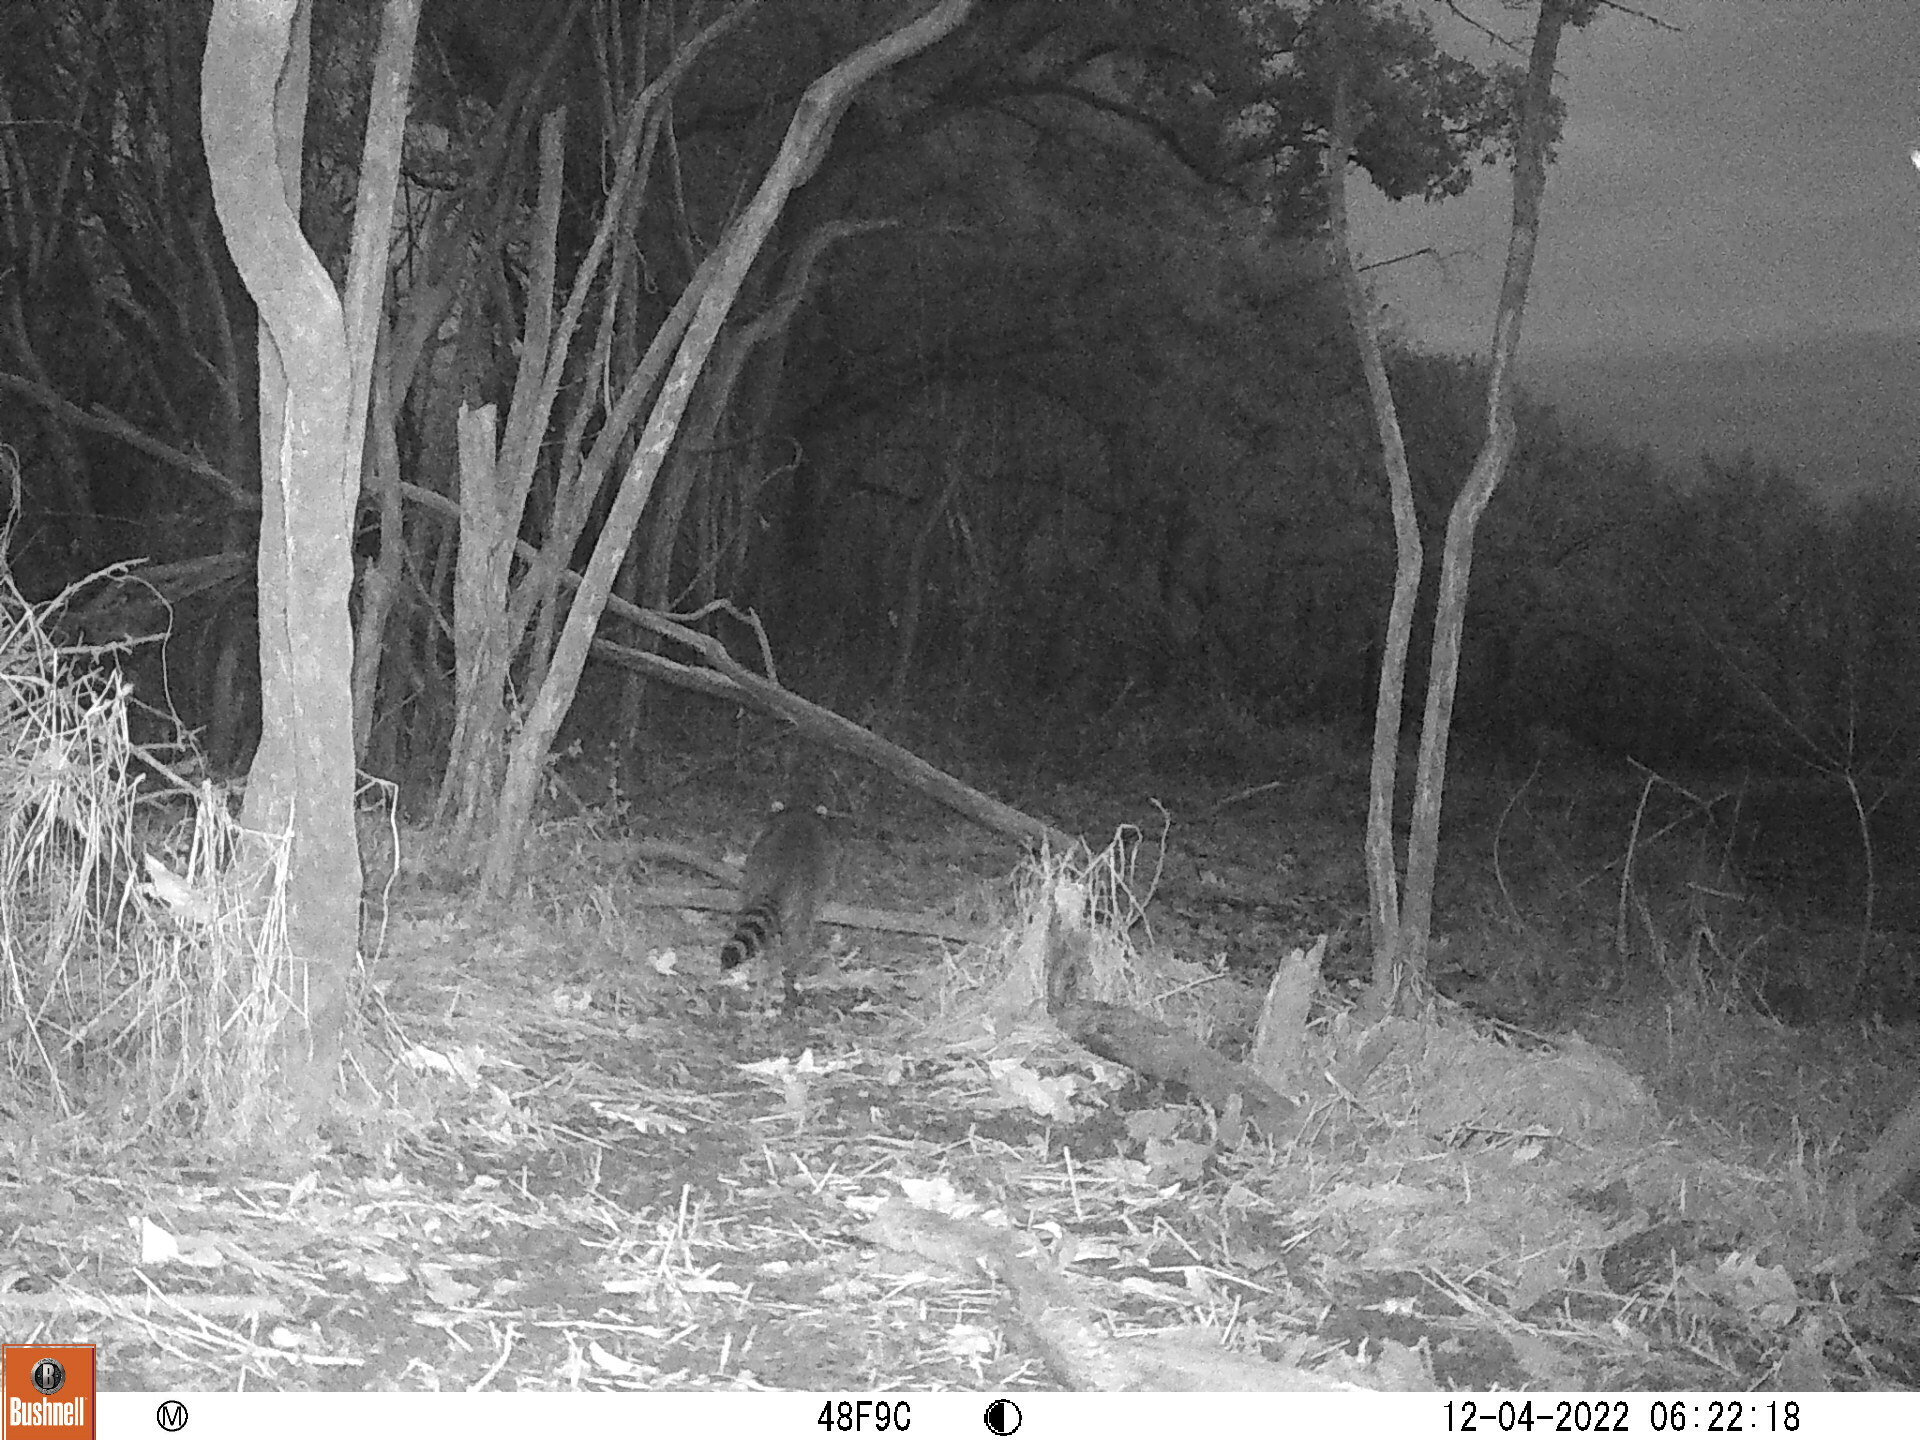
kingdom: Animalia
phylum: Chordata
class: Mammalia
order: Carnivora
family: Procyonidae
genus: Procyon
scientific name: Procyon lotor
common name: Raccoon
